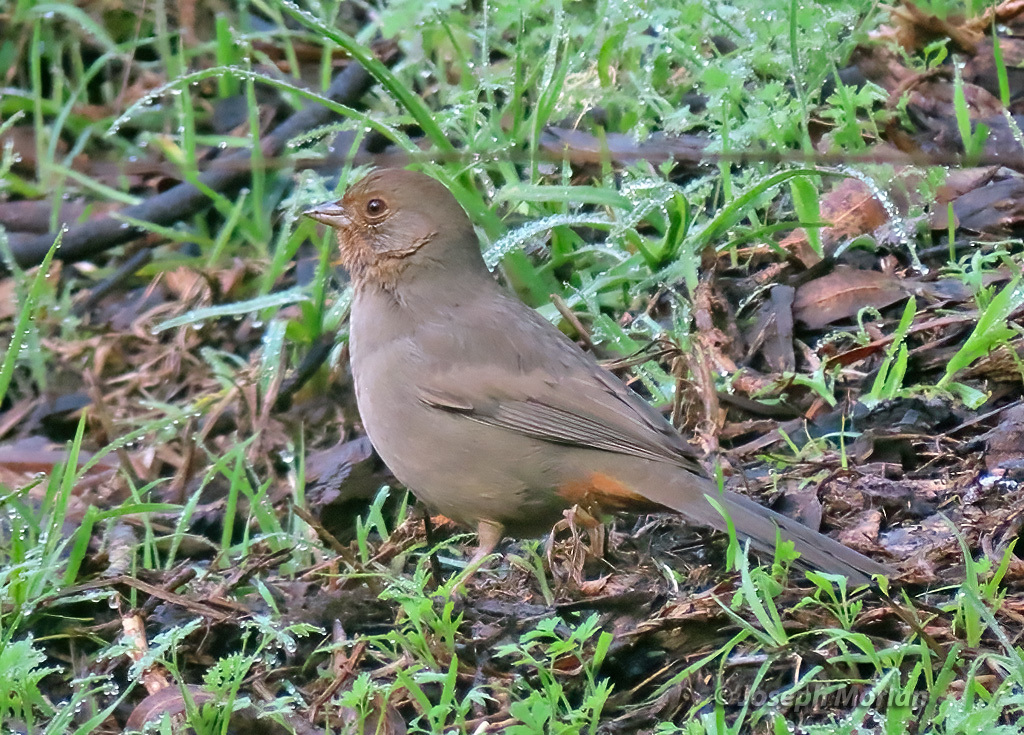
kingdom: Animalia
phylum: Chordata
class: Aves
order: Passeriformes
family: Passerellidae
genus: Melozone
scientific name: Melozone crissalis
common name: California towhee
